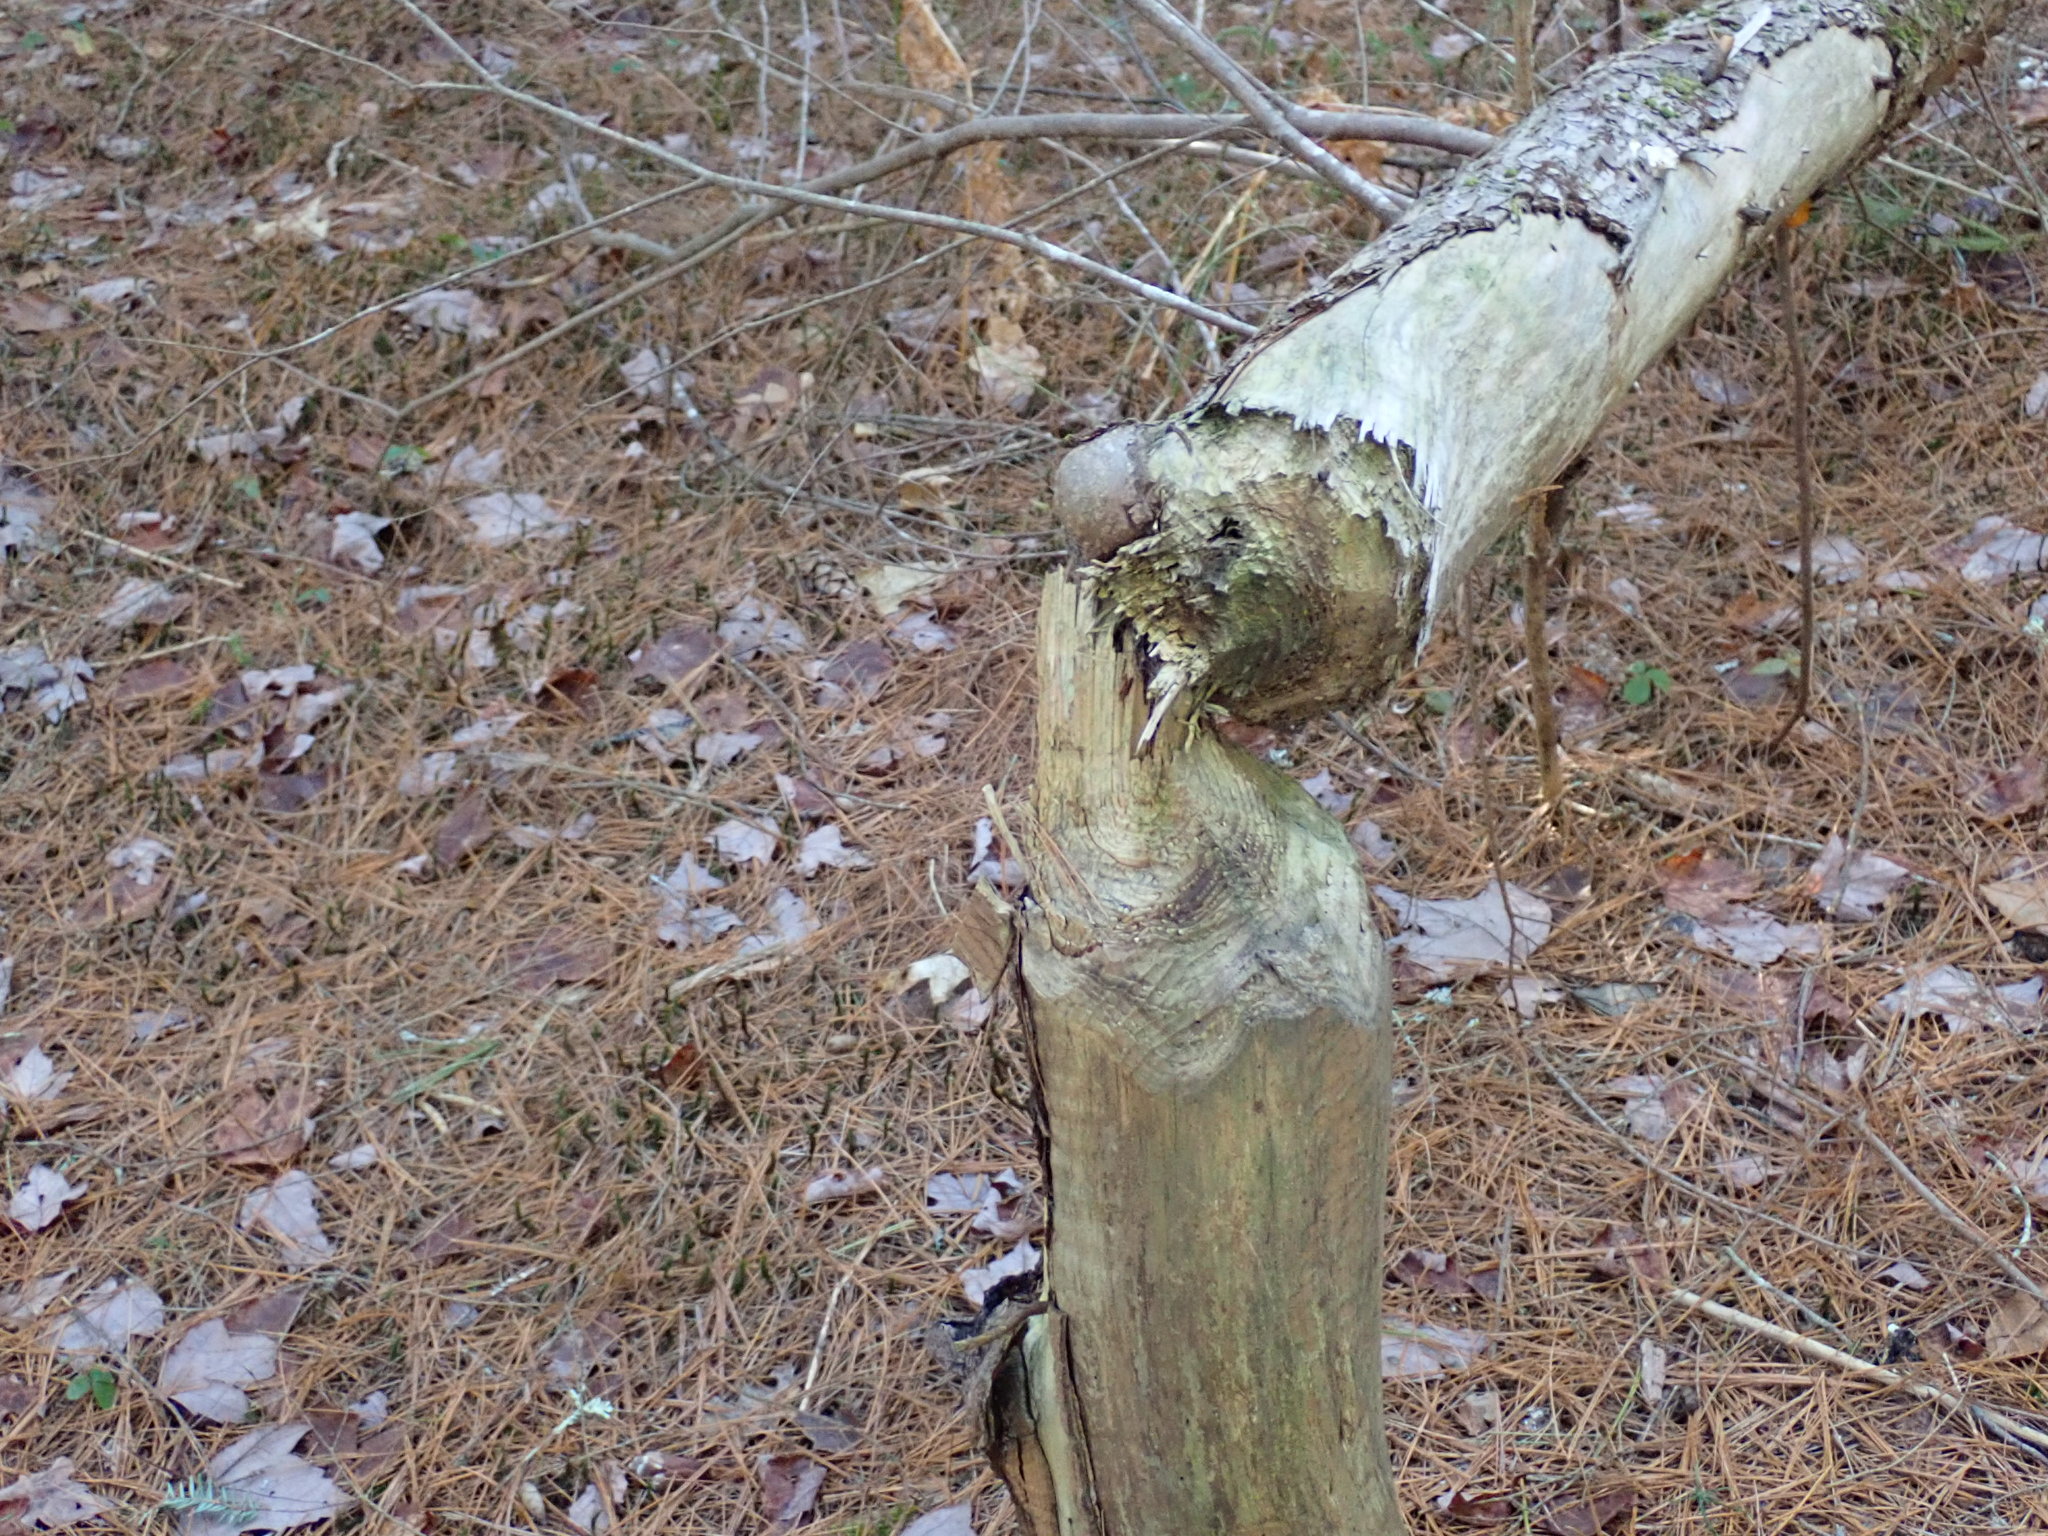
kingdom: Animalia
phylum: Chordata
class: Mammalia
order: Rodentia
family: Castoridae
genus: Castor
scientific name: Castor canadensis
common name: American beaver
